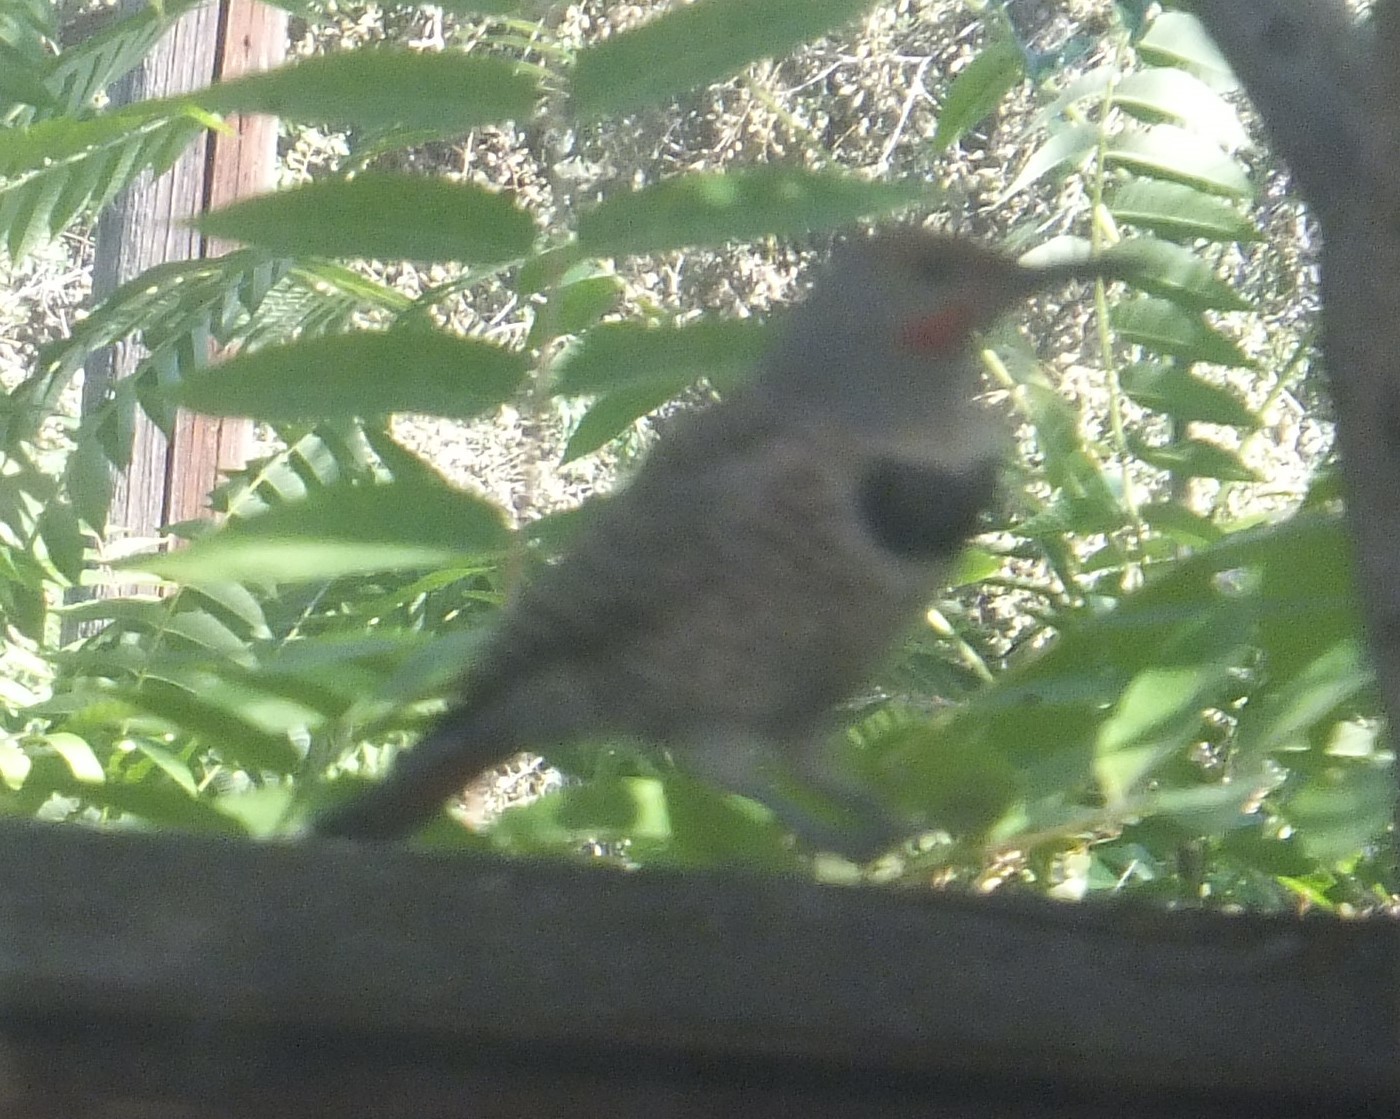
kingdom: Animalia
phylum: Chordata
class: Aves
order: Piciformes
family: Picidae
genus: Colaptes
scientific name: Colaptes auratus
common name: Northern flicker
